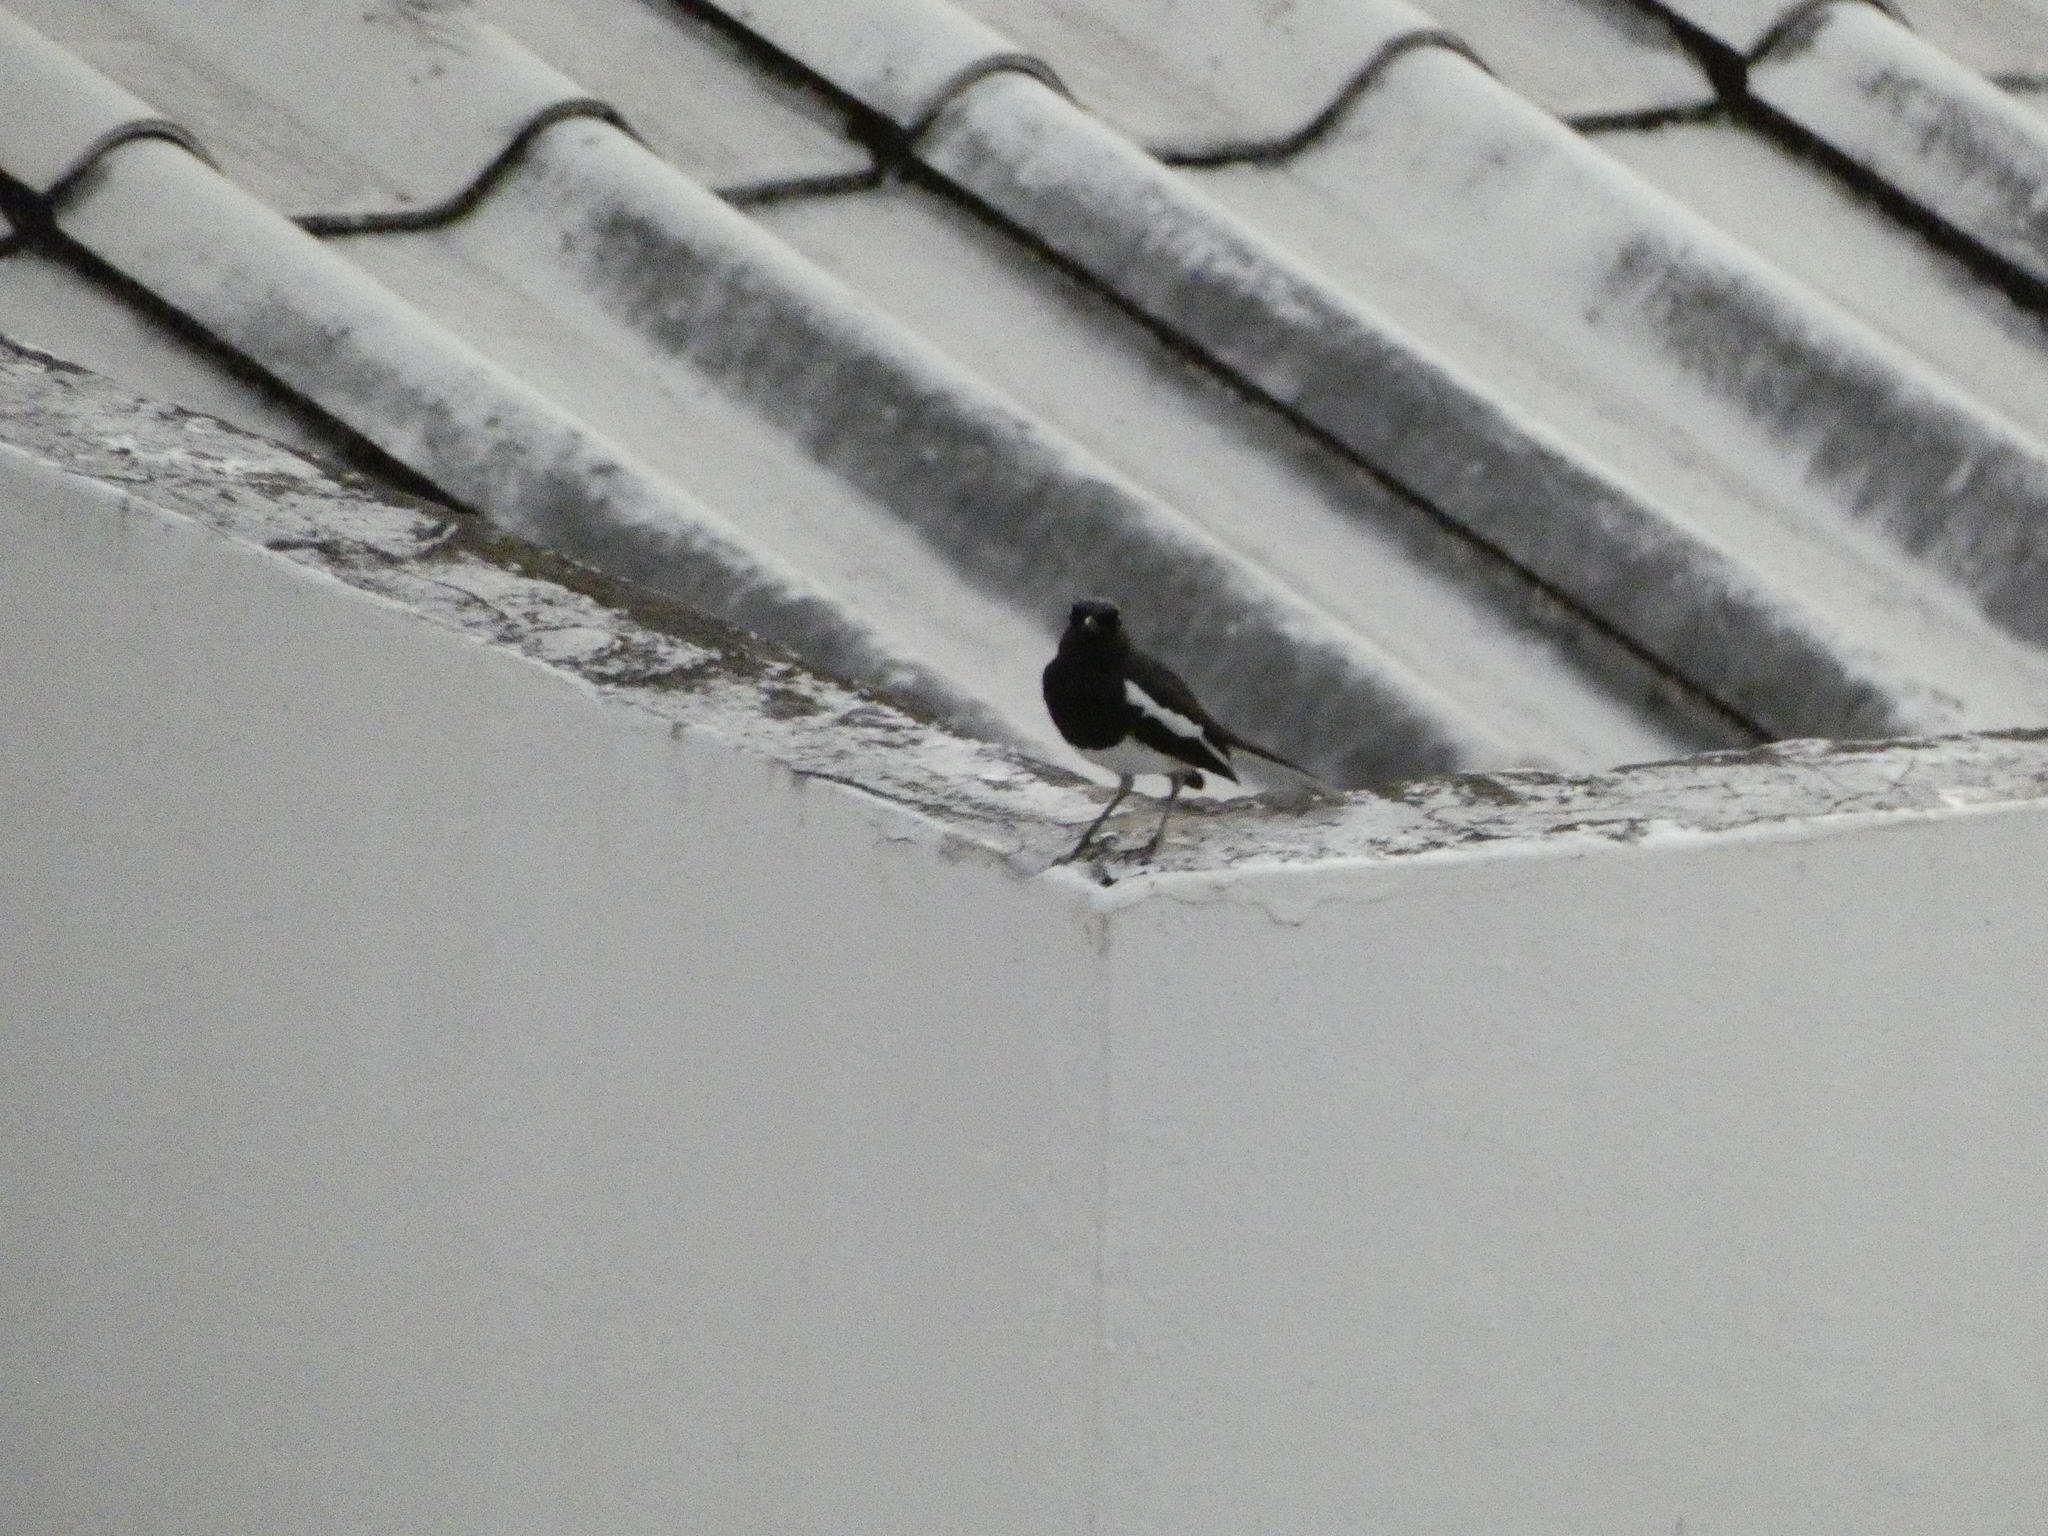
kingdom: Animalia
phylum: Chordata
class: Aves
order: Passeriformes
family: Muscicapidae
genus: Copsychus
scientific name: Copsychus saularis
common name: Oriental magpie-robin
